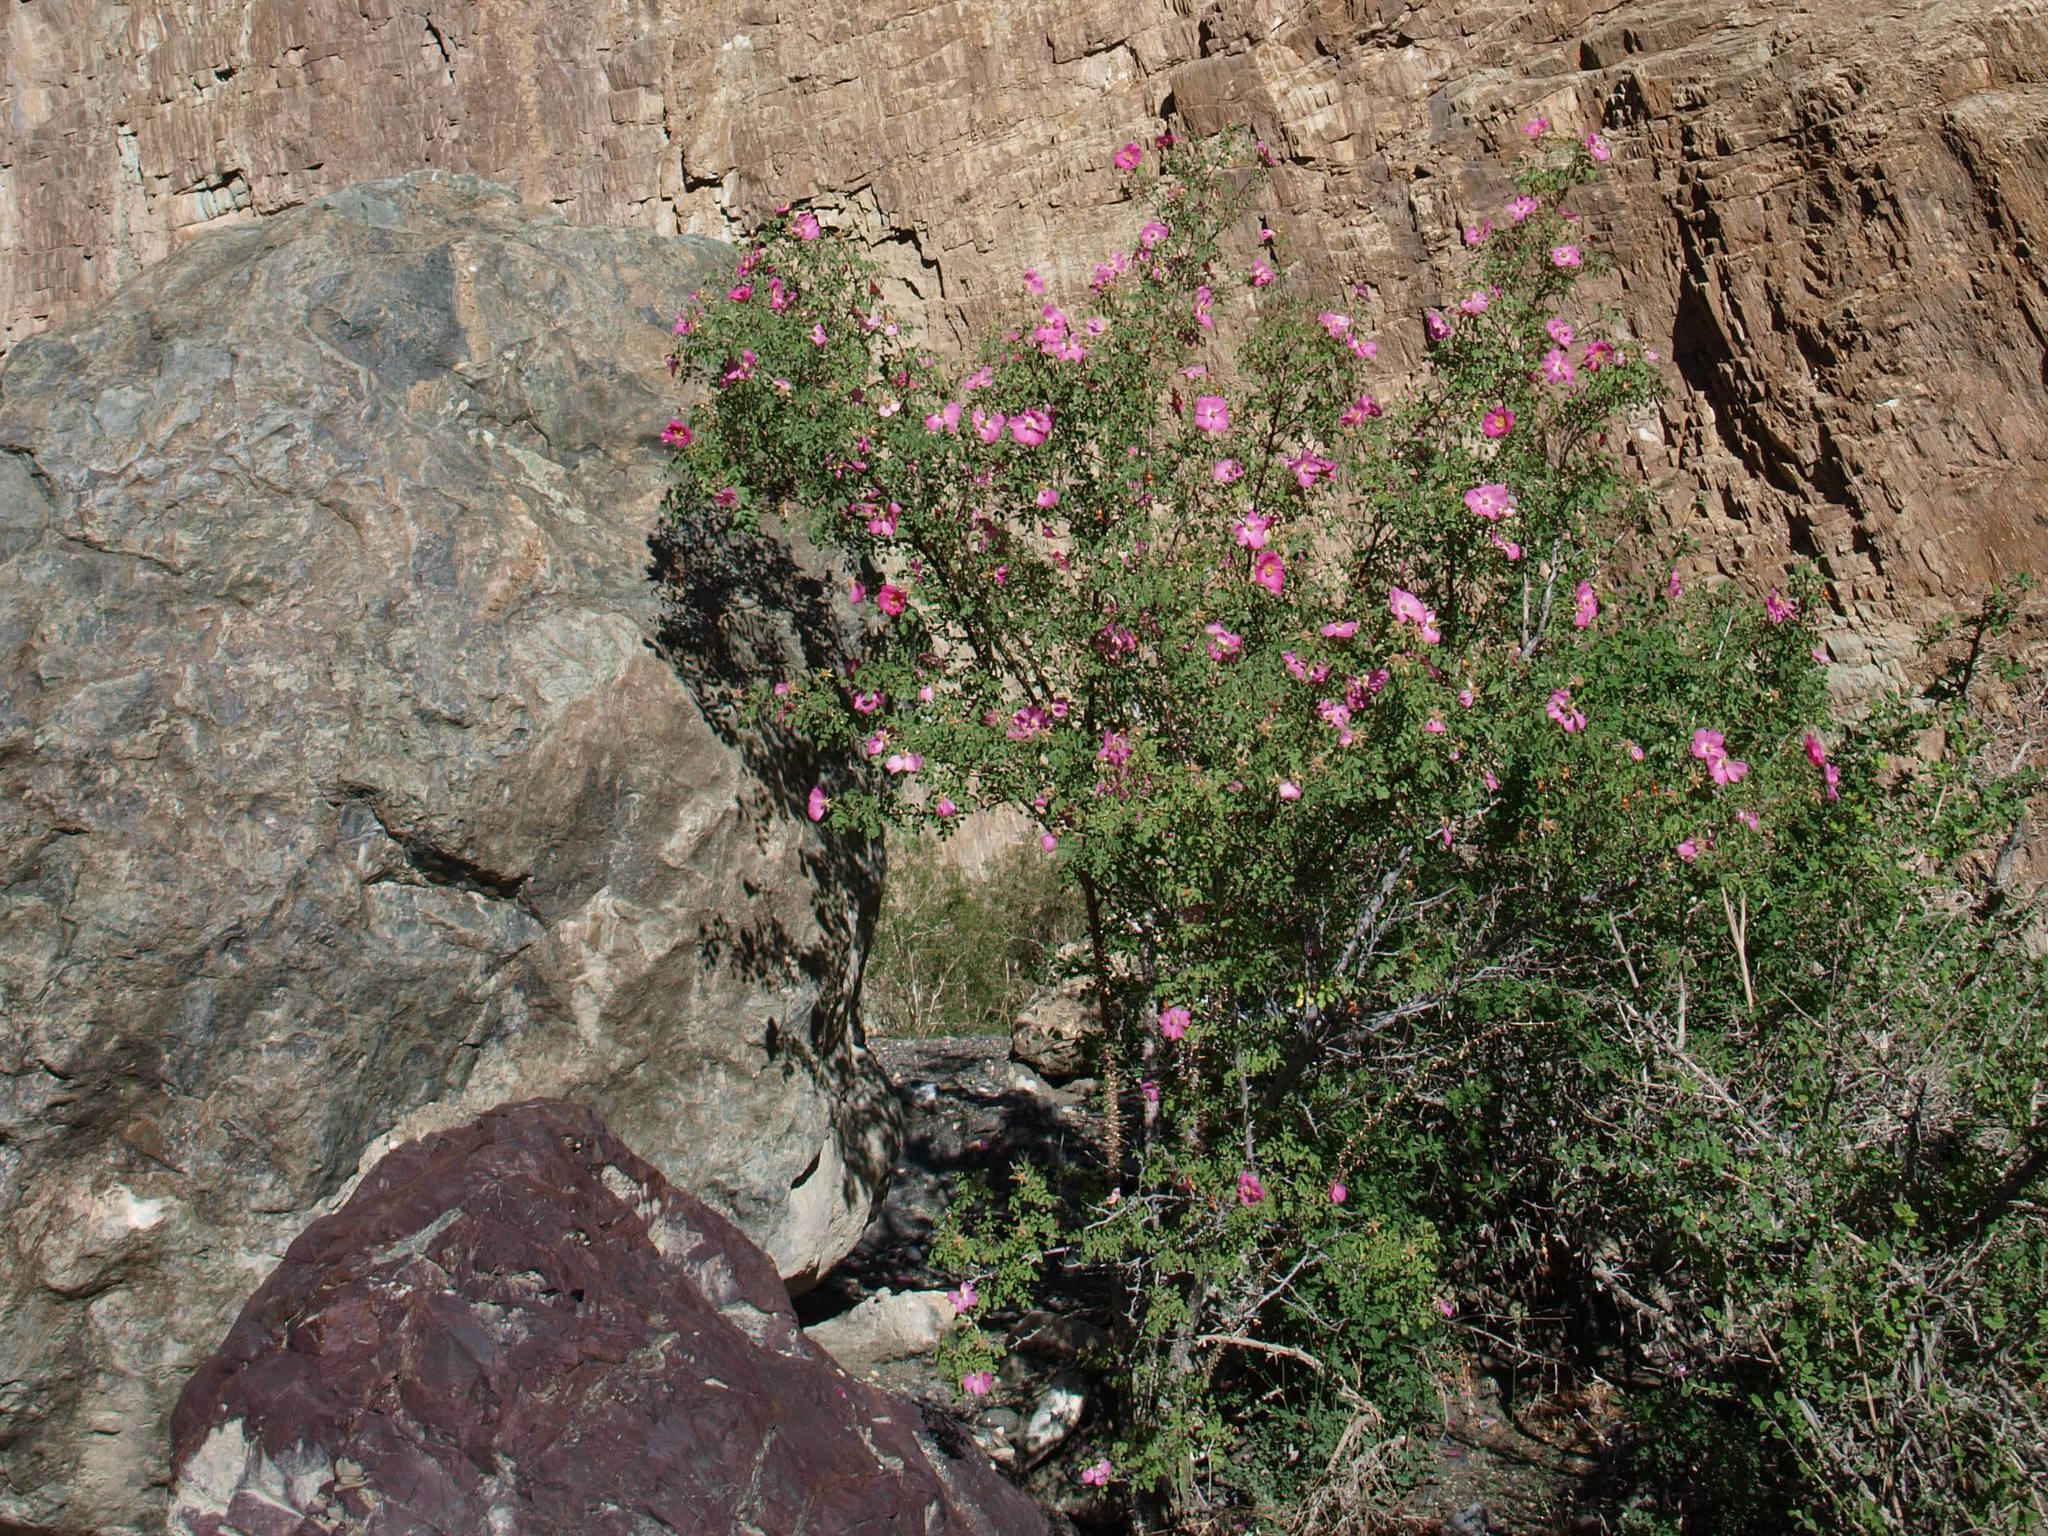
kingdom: Plantae
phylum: Tracheophyta
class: Magnoliopsida
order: Rosales
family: Rosaceae
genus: Rosa
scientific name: Rosa webbiana
